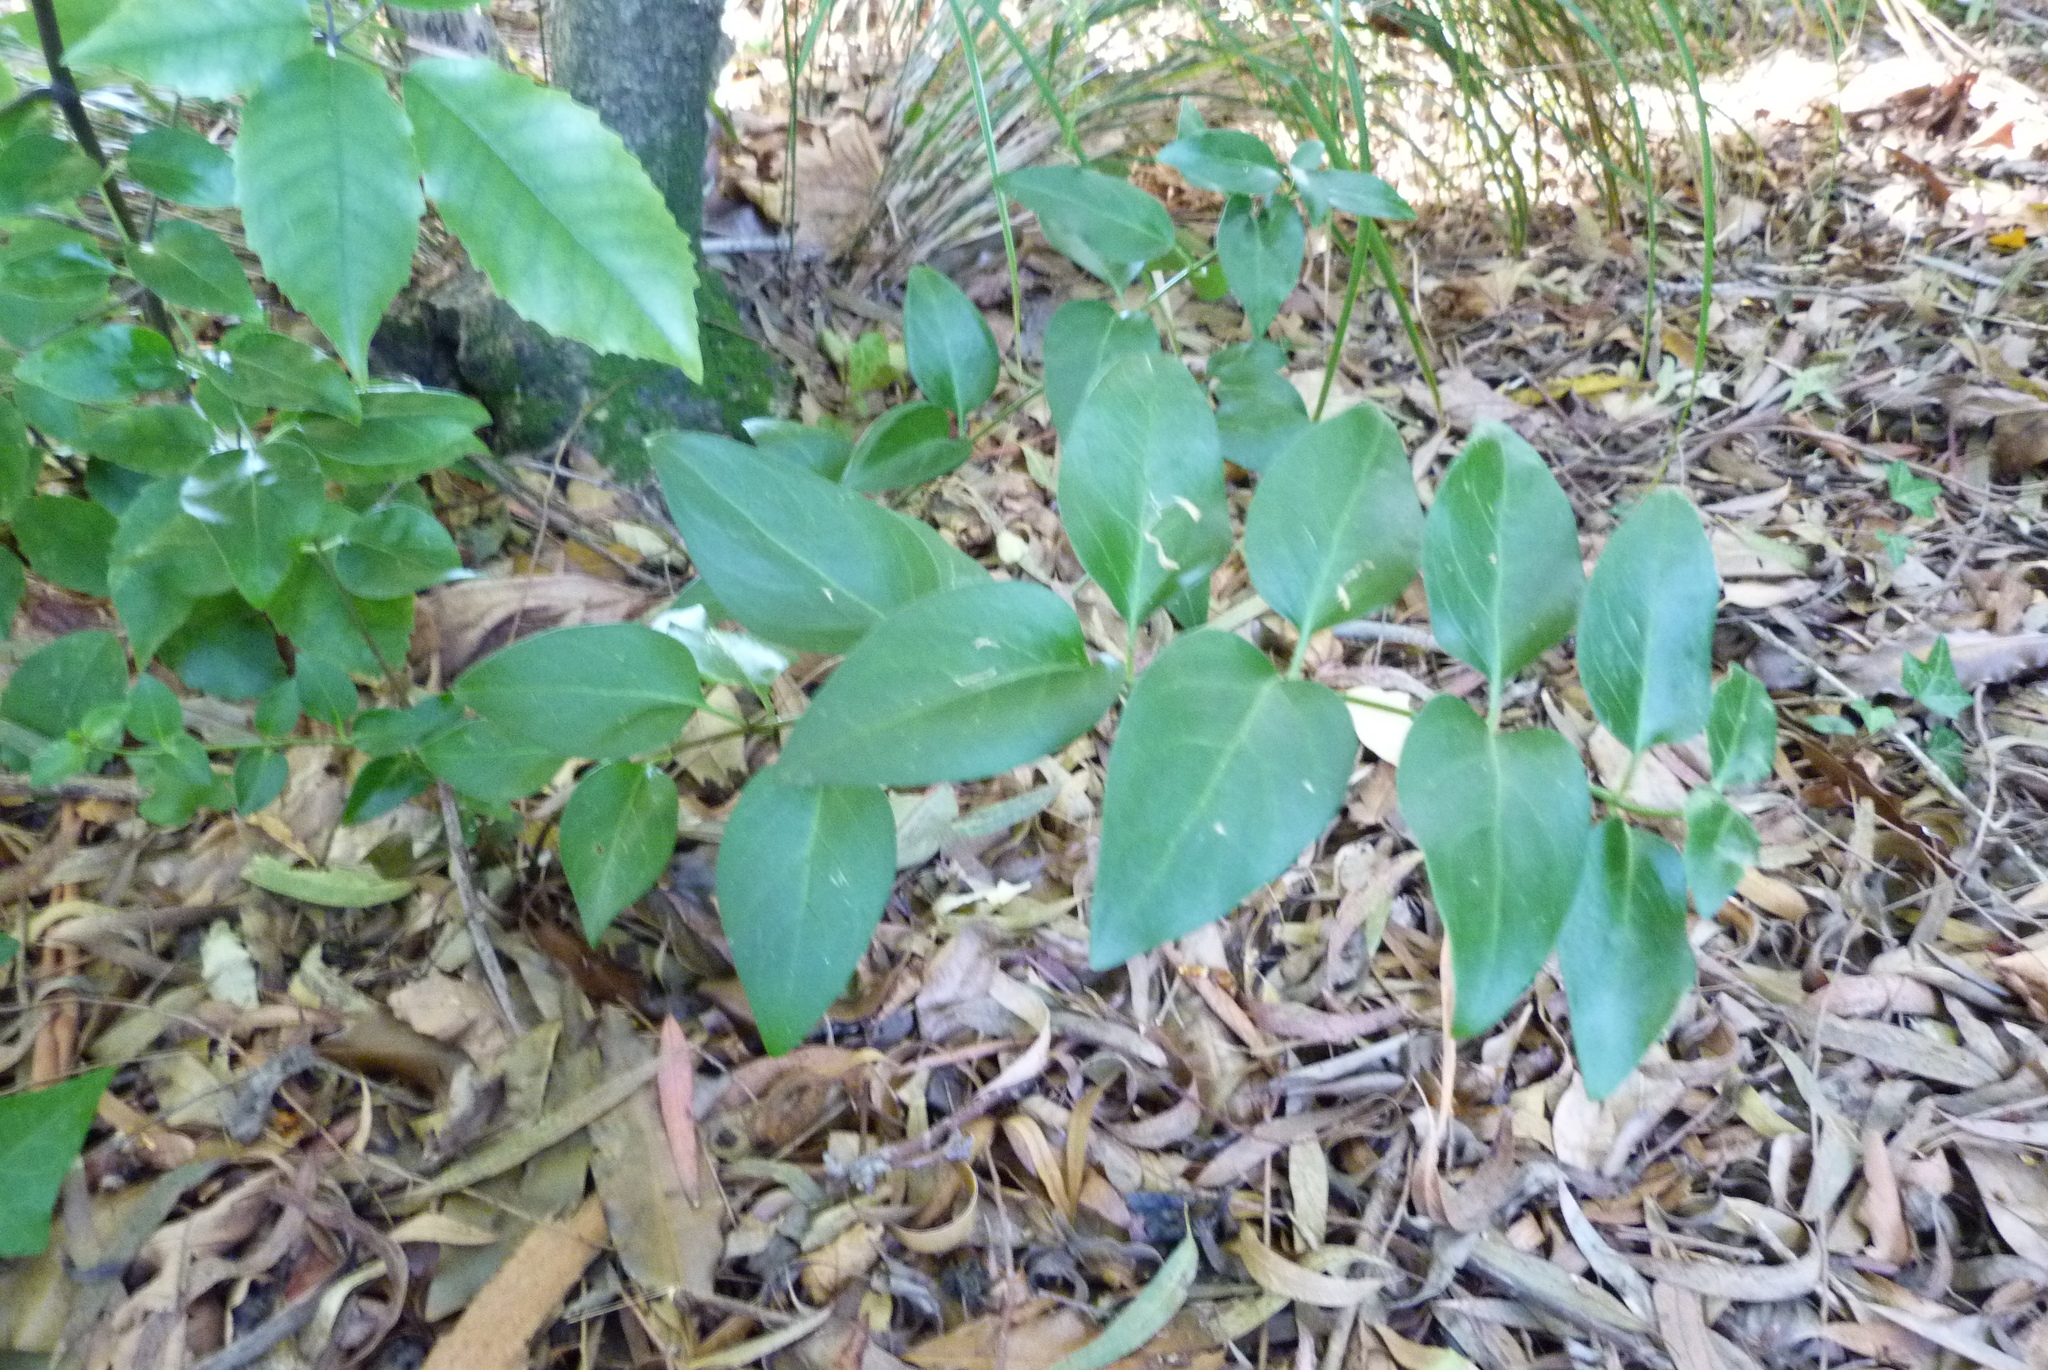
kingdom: Plantae
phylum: Tracheophyta
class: Magnoliopsida
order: Gentianales
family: Apocynaceae
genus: Vinca
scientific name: Vinca major
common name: Greater periwinkle
